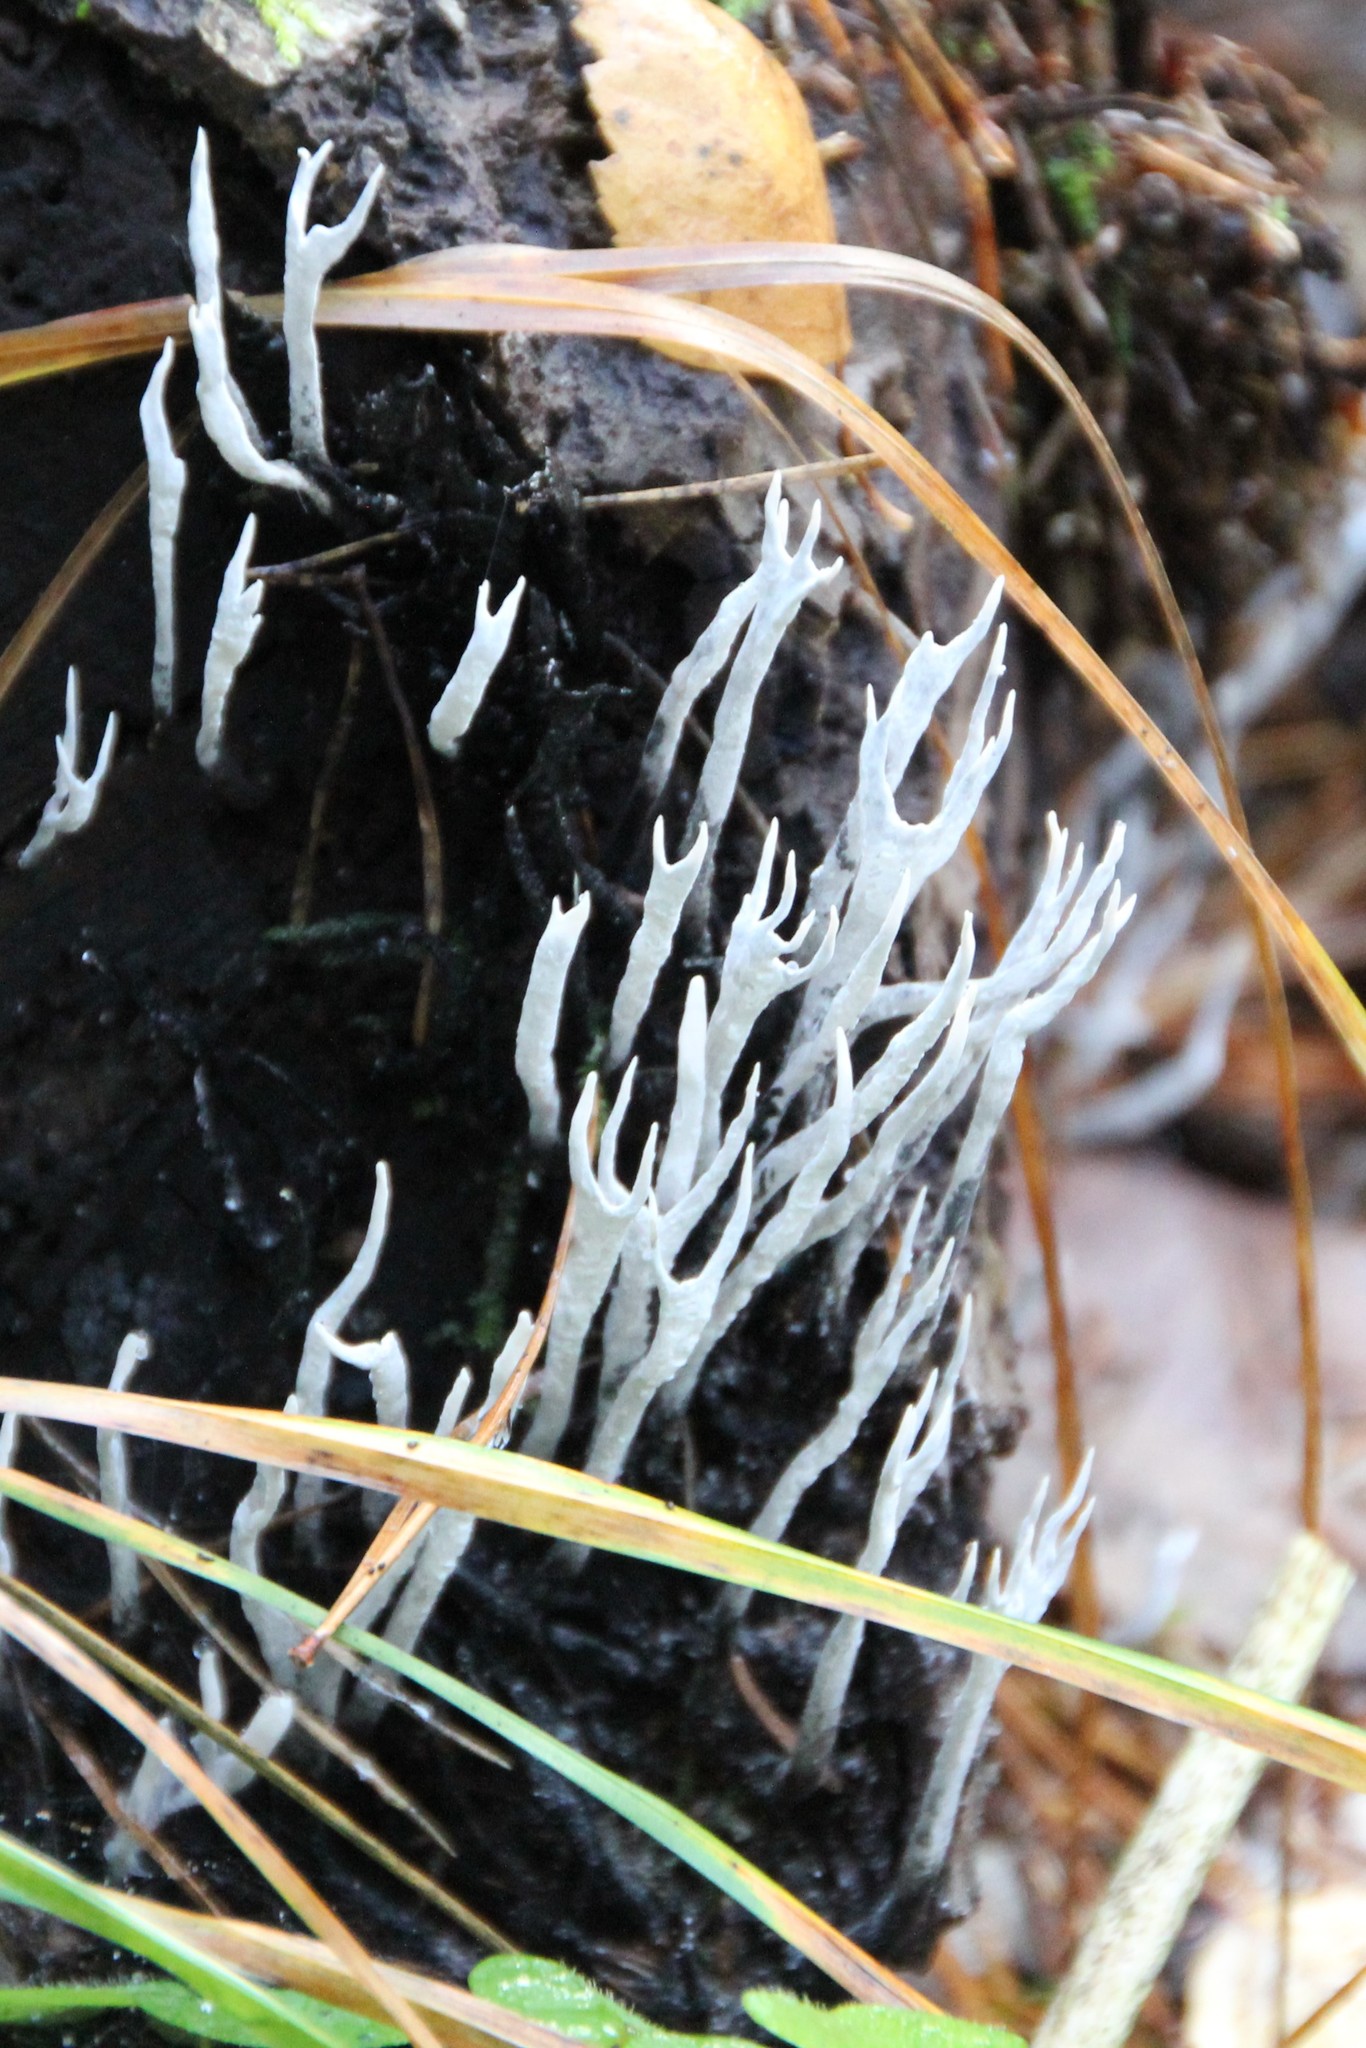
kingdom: Fungi
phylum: Ascomycota
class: Sordariomycetes
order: Xylariales
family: Xylariaceae
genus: Xylaria
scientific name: Xylaria hypoxylon
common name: Candle-snuff fungus
